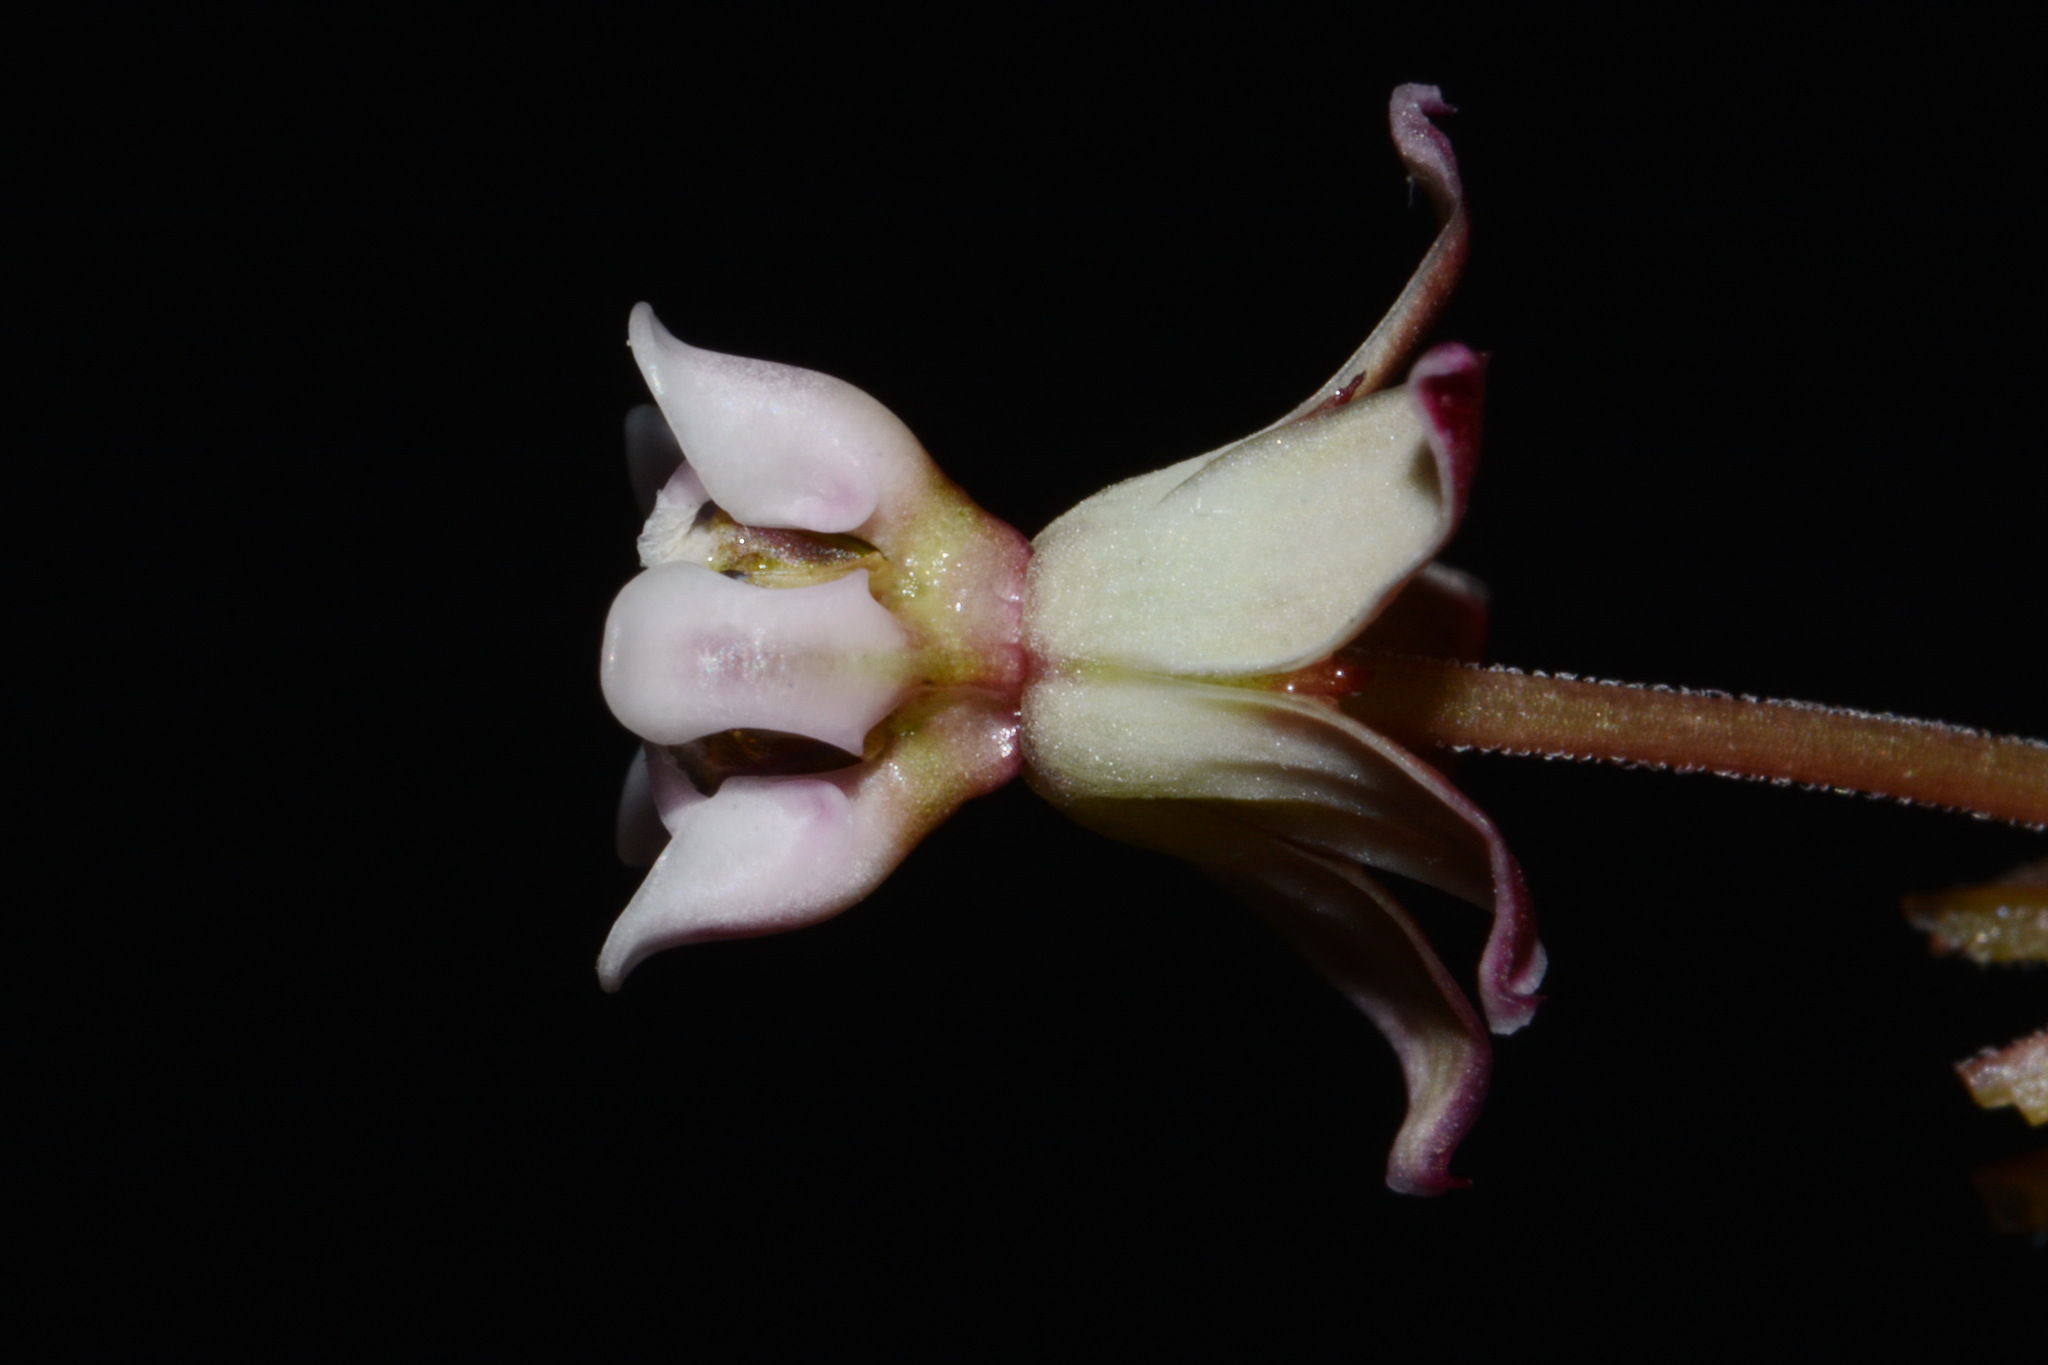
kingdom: Plantae
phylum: Tracheophyta
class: Magnoliopsida
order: Gentianales
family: Apocynaceae
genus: Asclepias
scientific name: Asclepias michauxii
